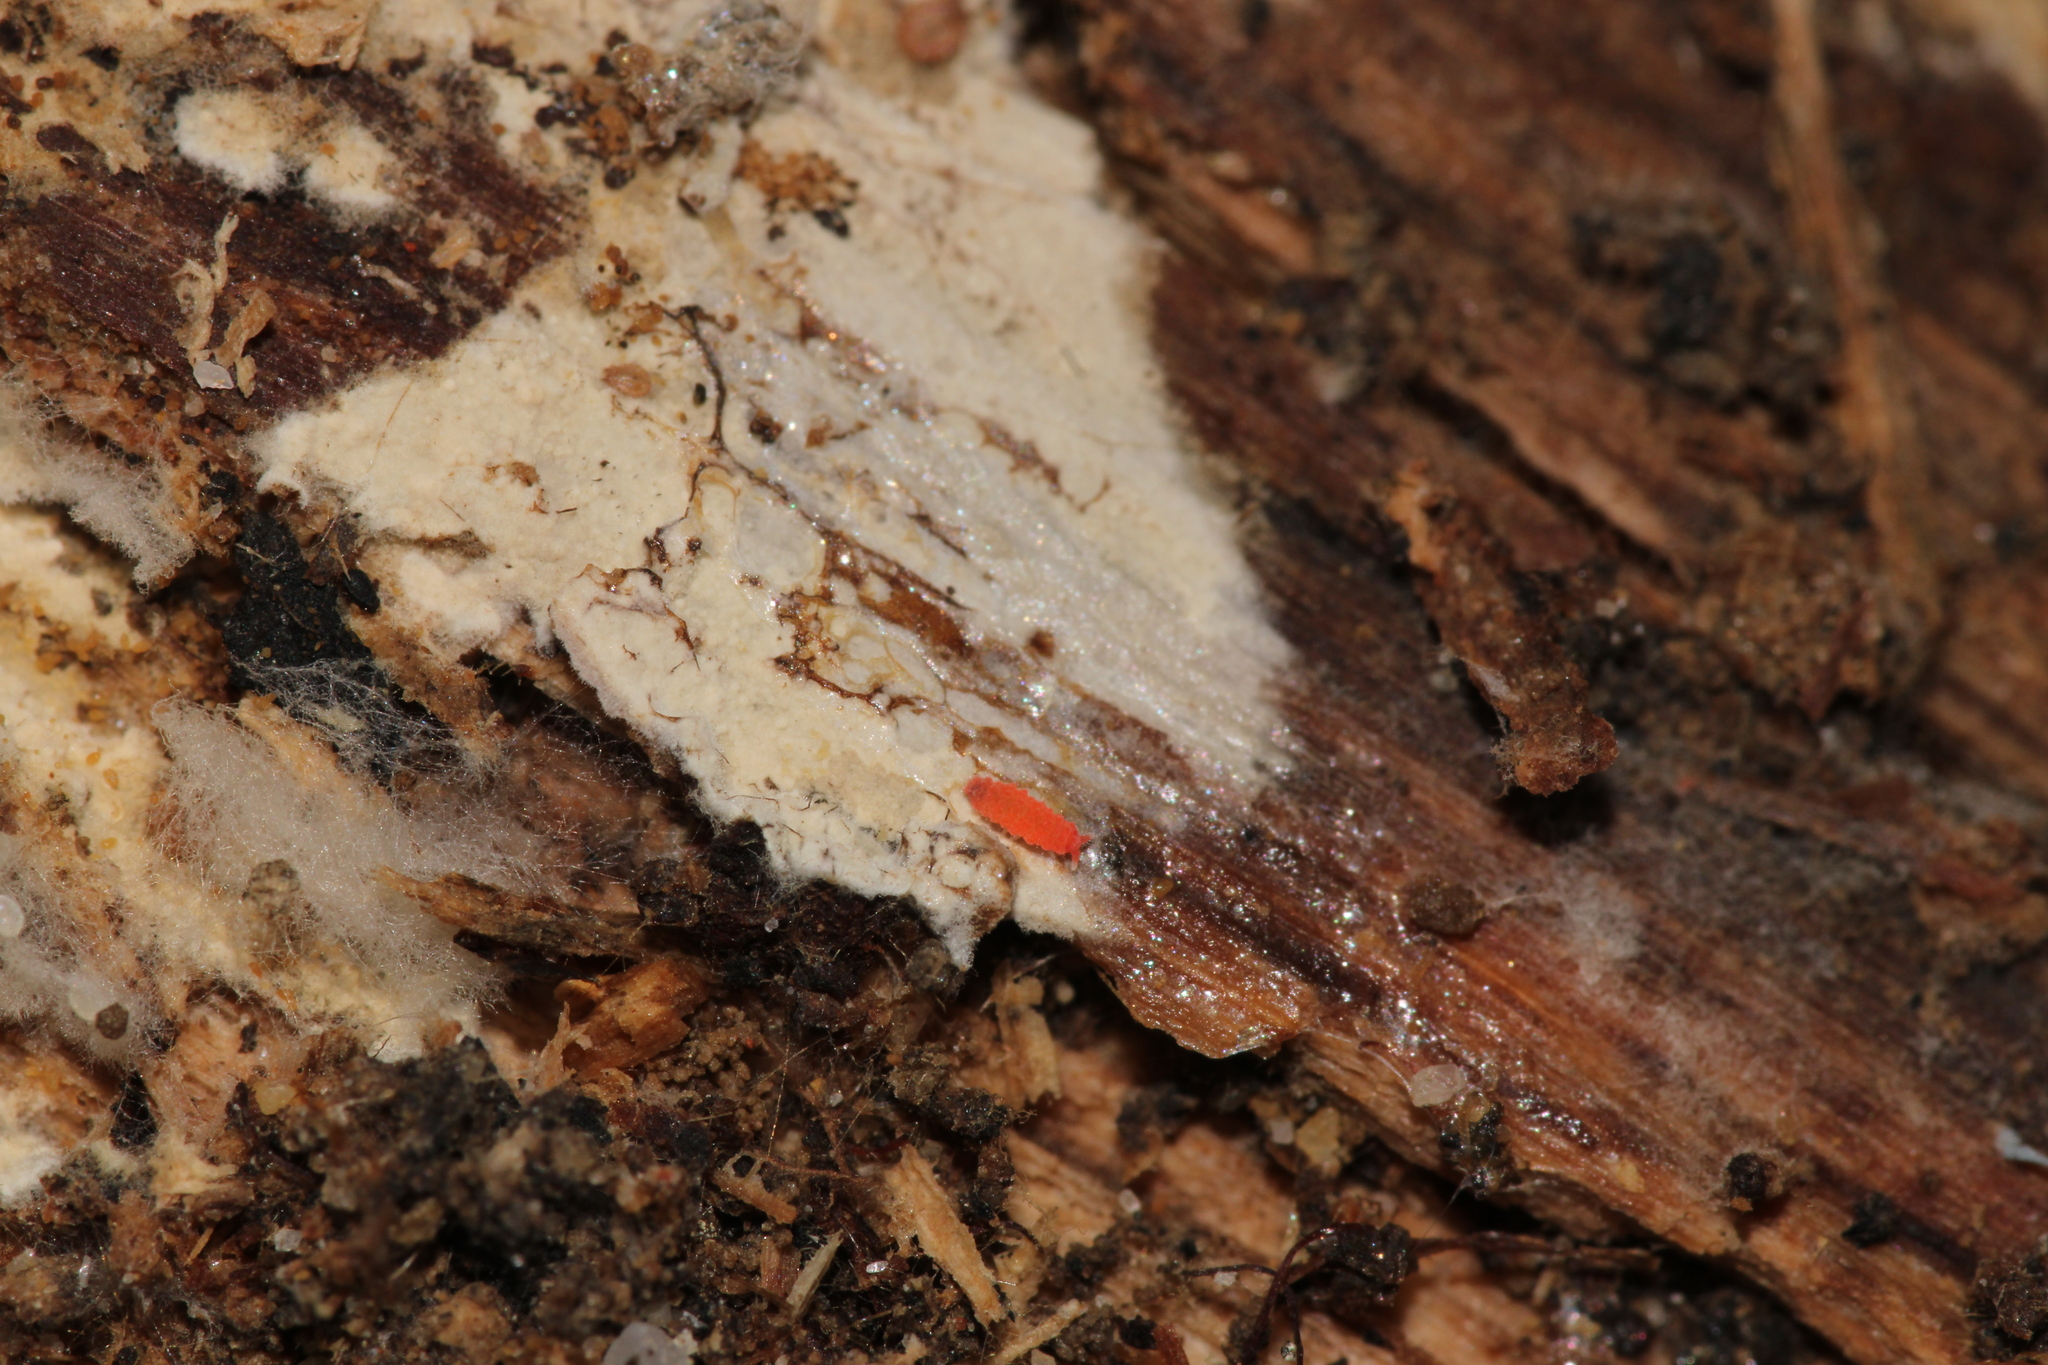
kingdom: Animalia
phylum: Arthropoda
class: Collembola
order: Poduromorpha
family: Neanuridae
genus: Bilobella
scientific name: Bilobella braunerae
